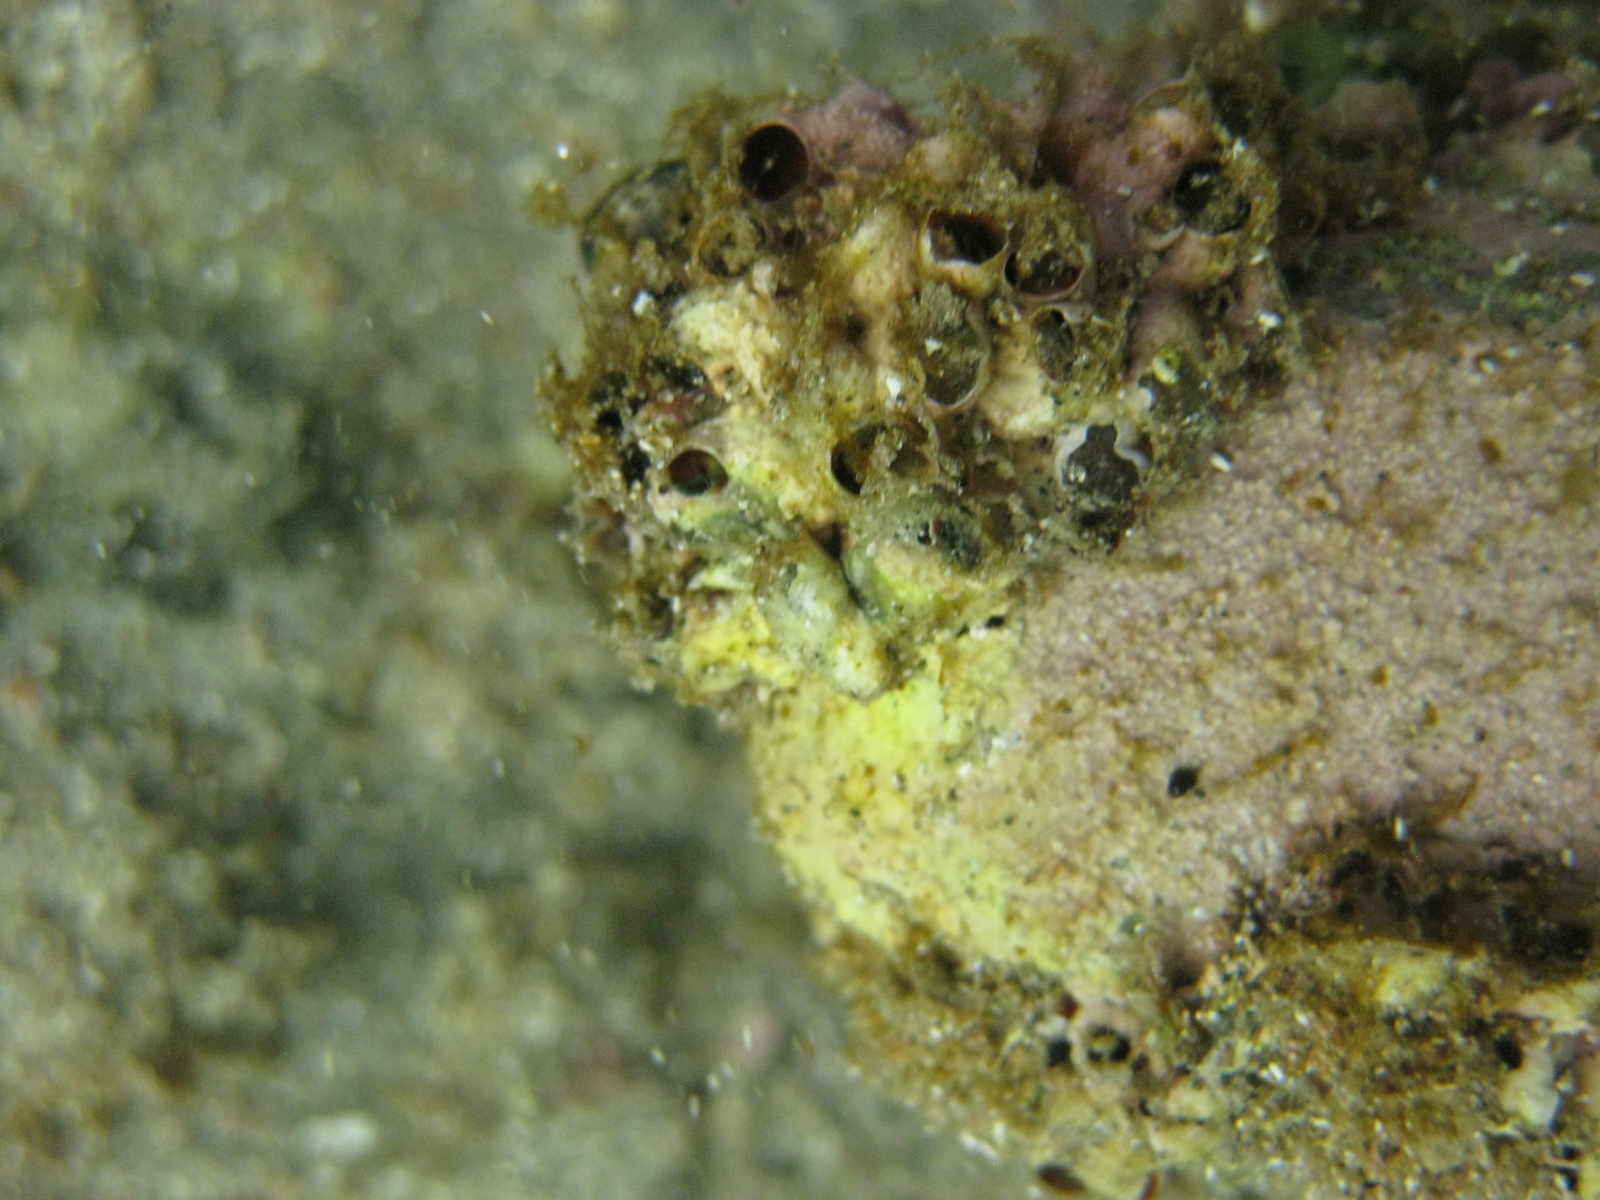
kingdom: Animalia
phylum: Mollusca
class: Gastropoda
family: Siliquariidae
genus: Stephopoma
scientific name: Stephopoma roseum
